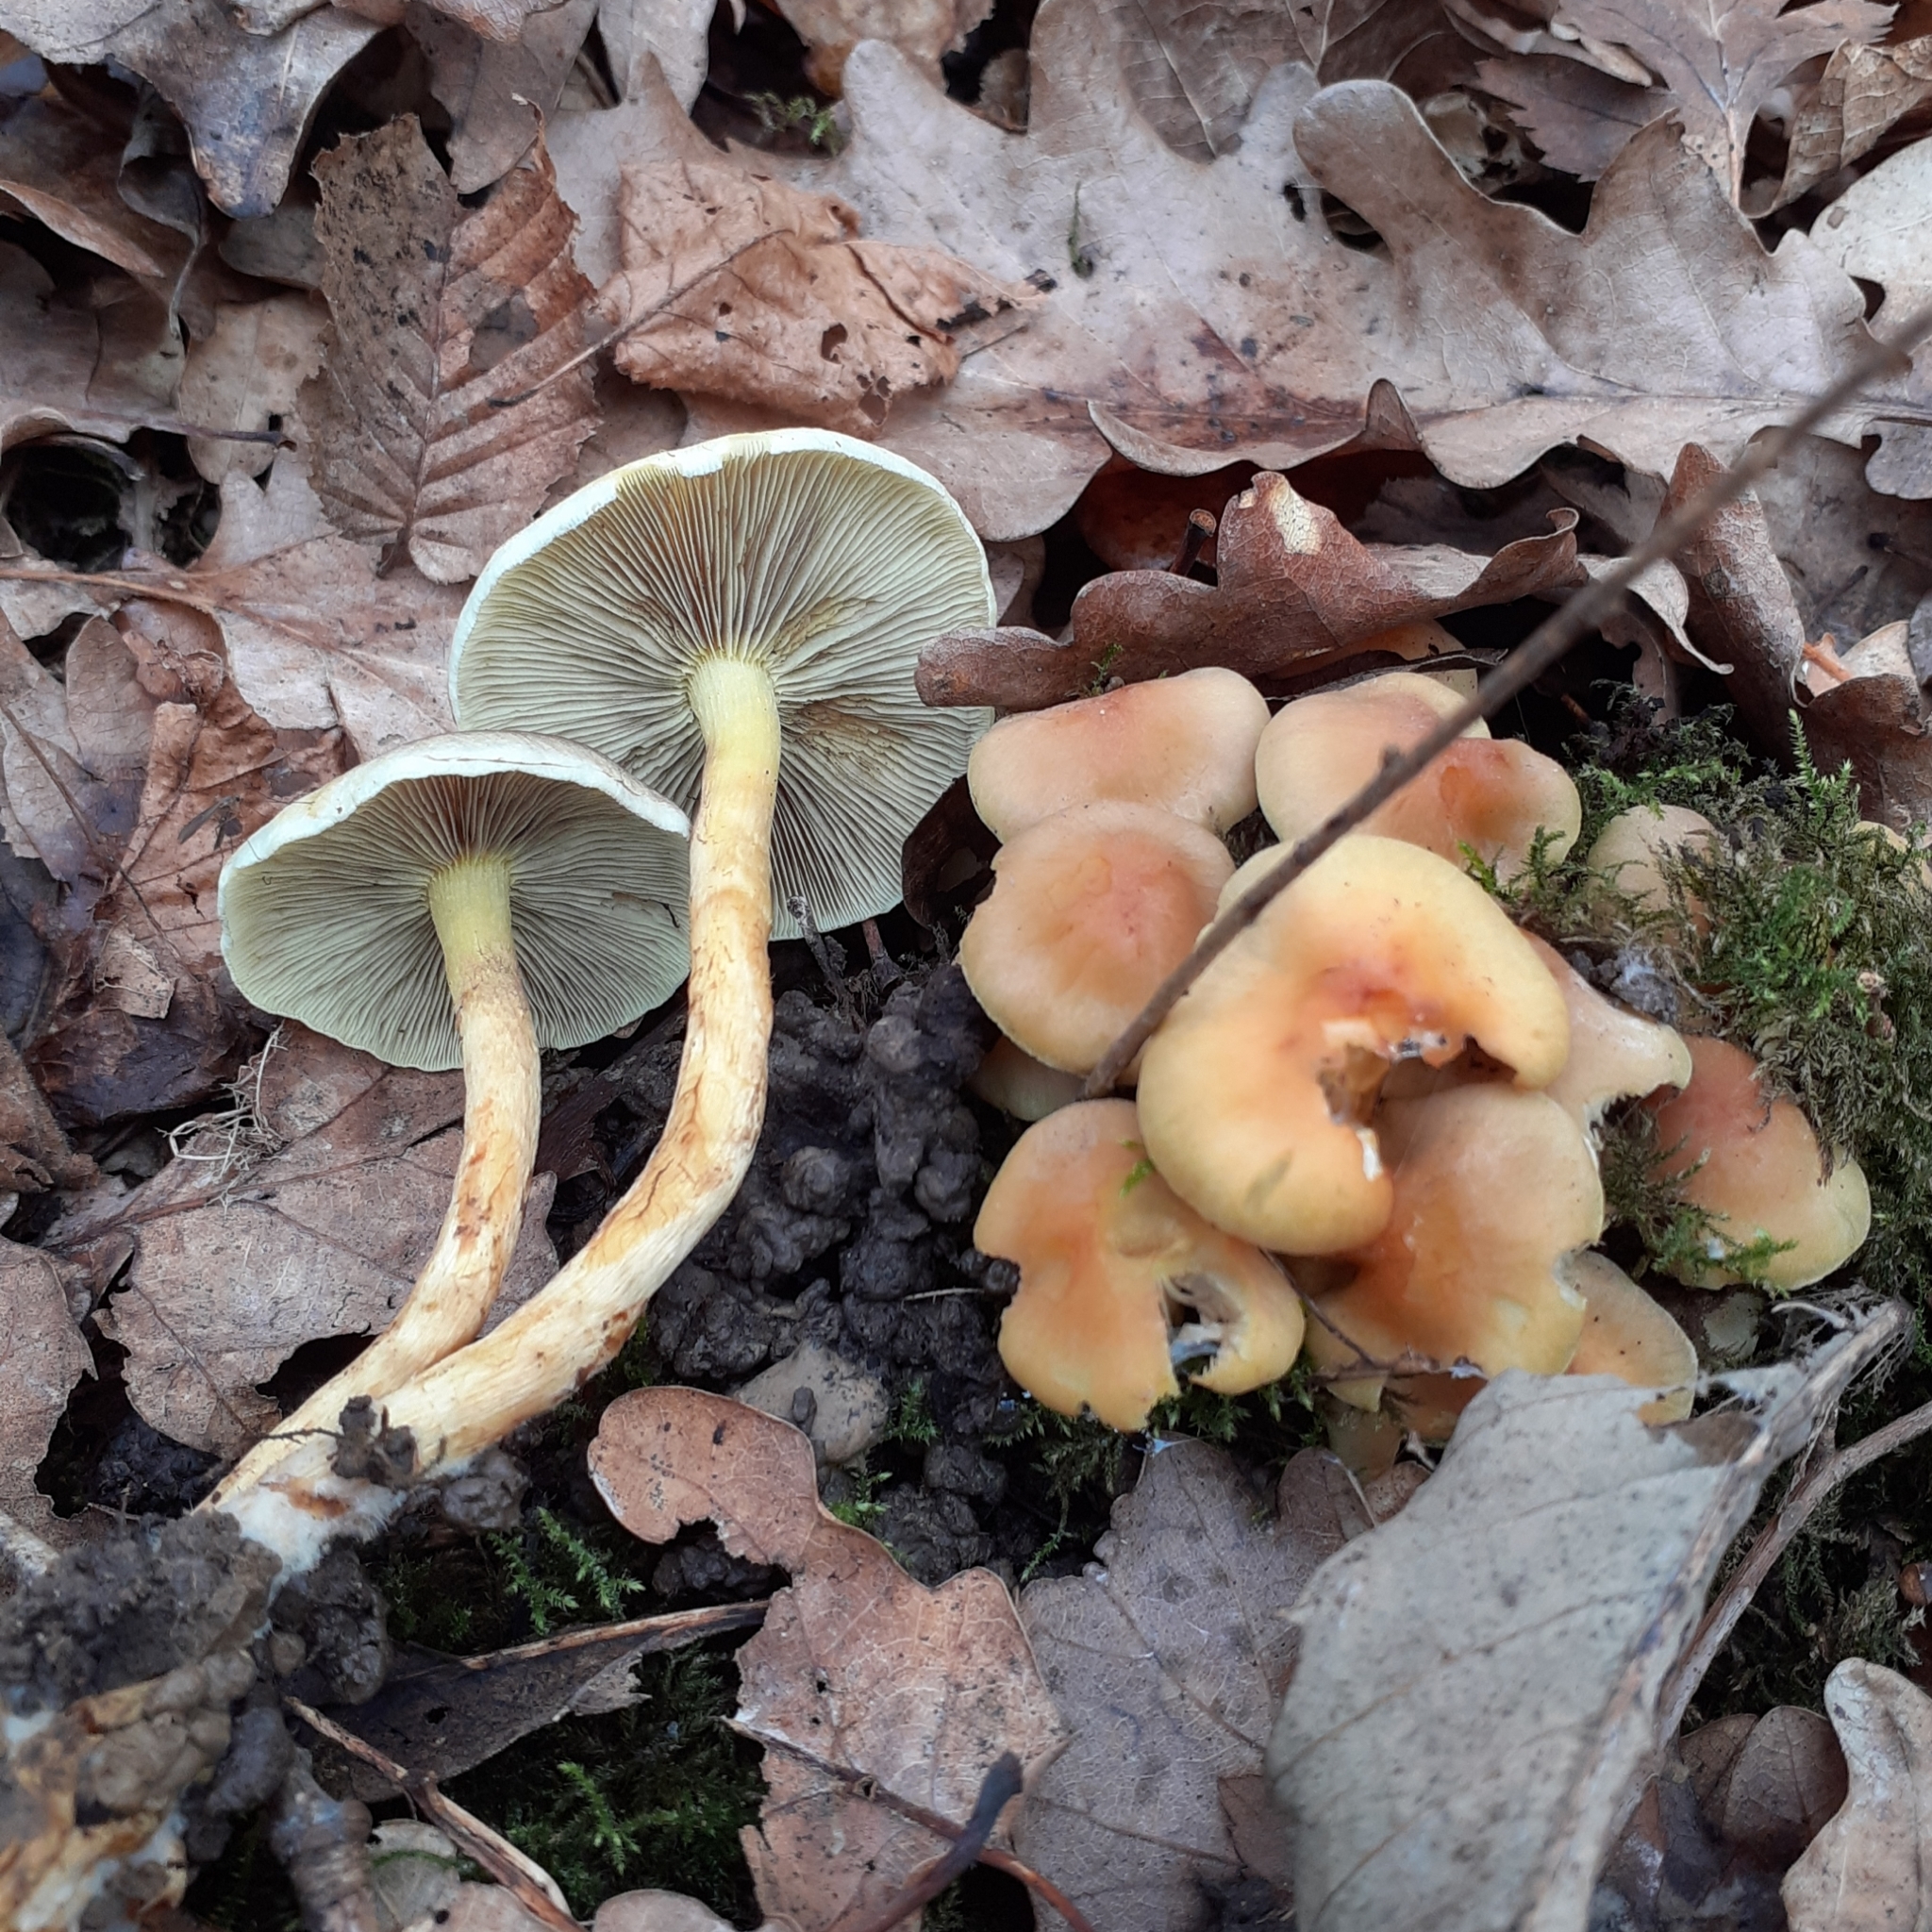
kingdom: Fungi
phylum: Basidiomycota
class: Agaricomycetes
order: Agaricales
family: Strophariaceae
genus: Hypholoma
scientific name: Hypholoma fasciculare
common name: Sulphur tuft
